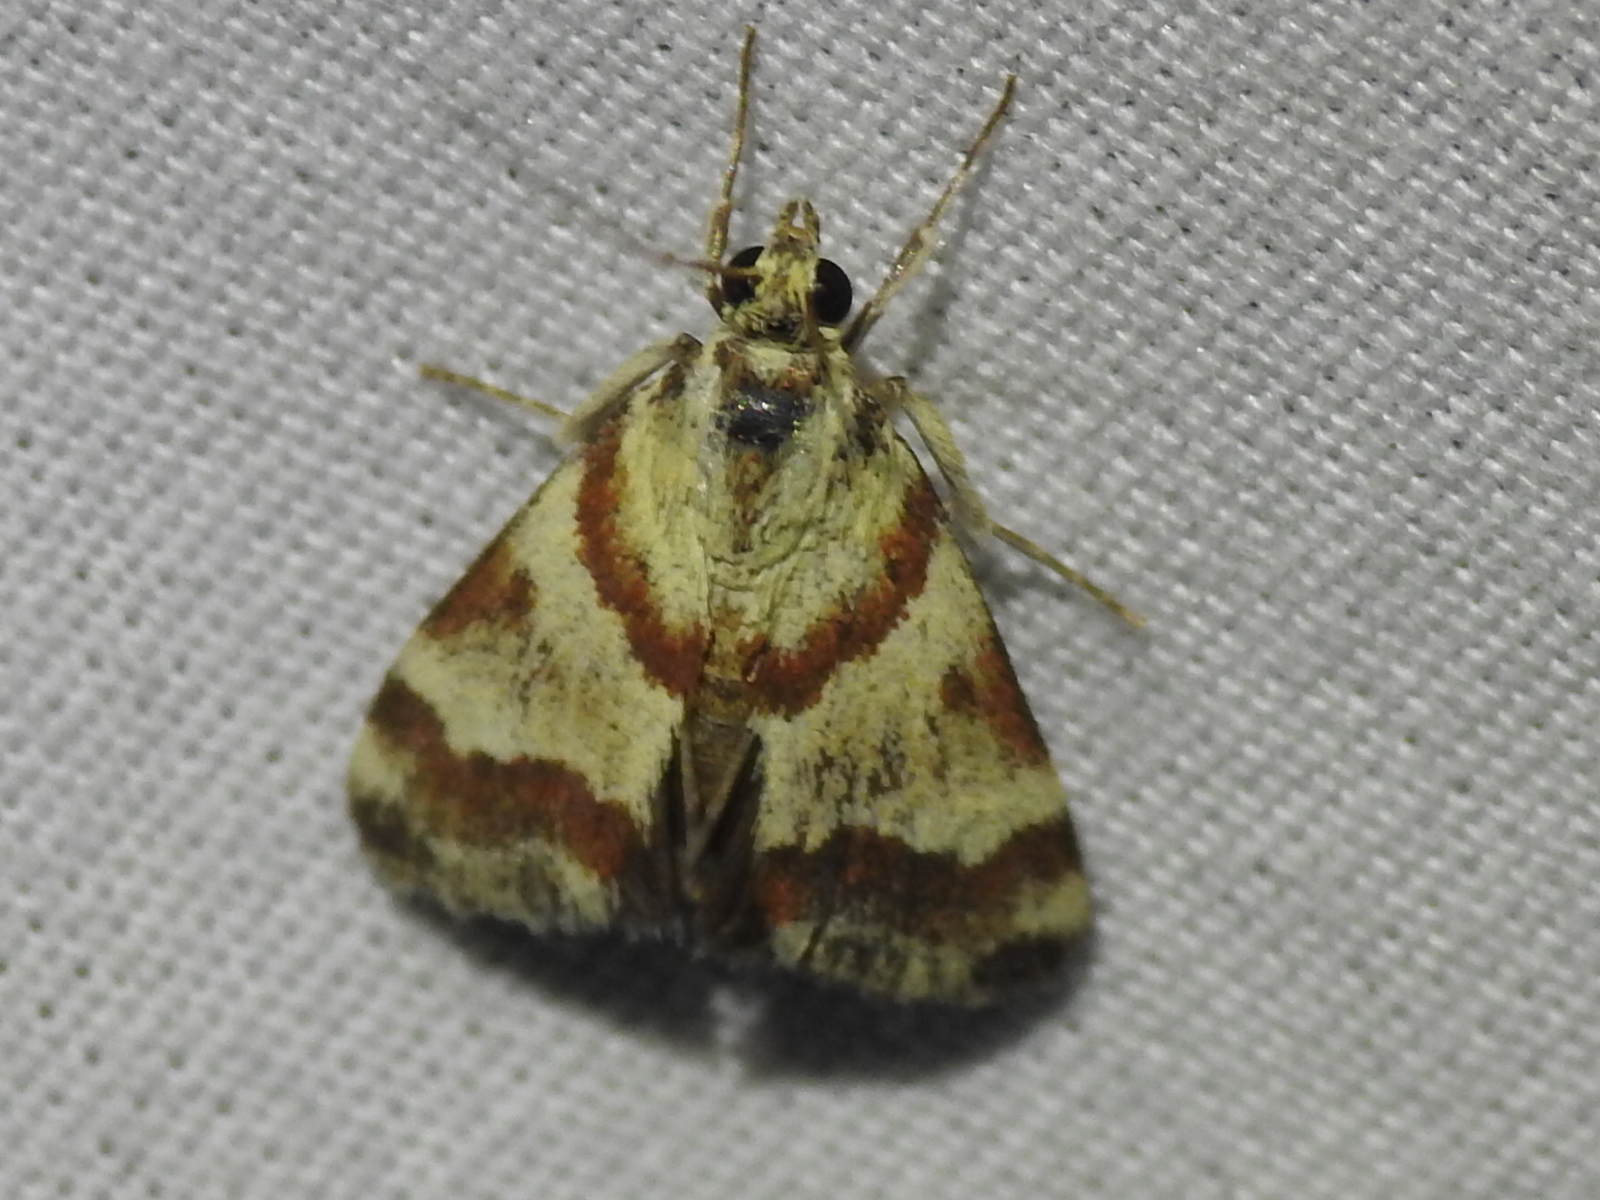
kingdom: Animalia
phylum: Arthropoda
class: Insecta
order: Lepidoptera
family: Crambidae
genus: Noctuelia
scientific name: Noctuelia Mimoschinia rufofascialis
